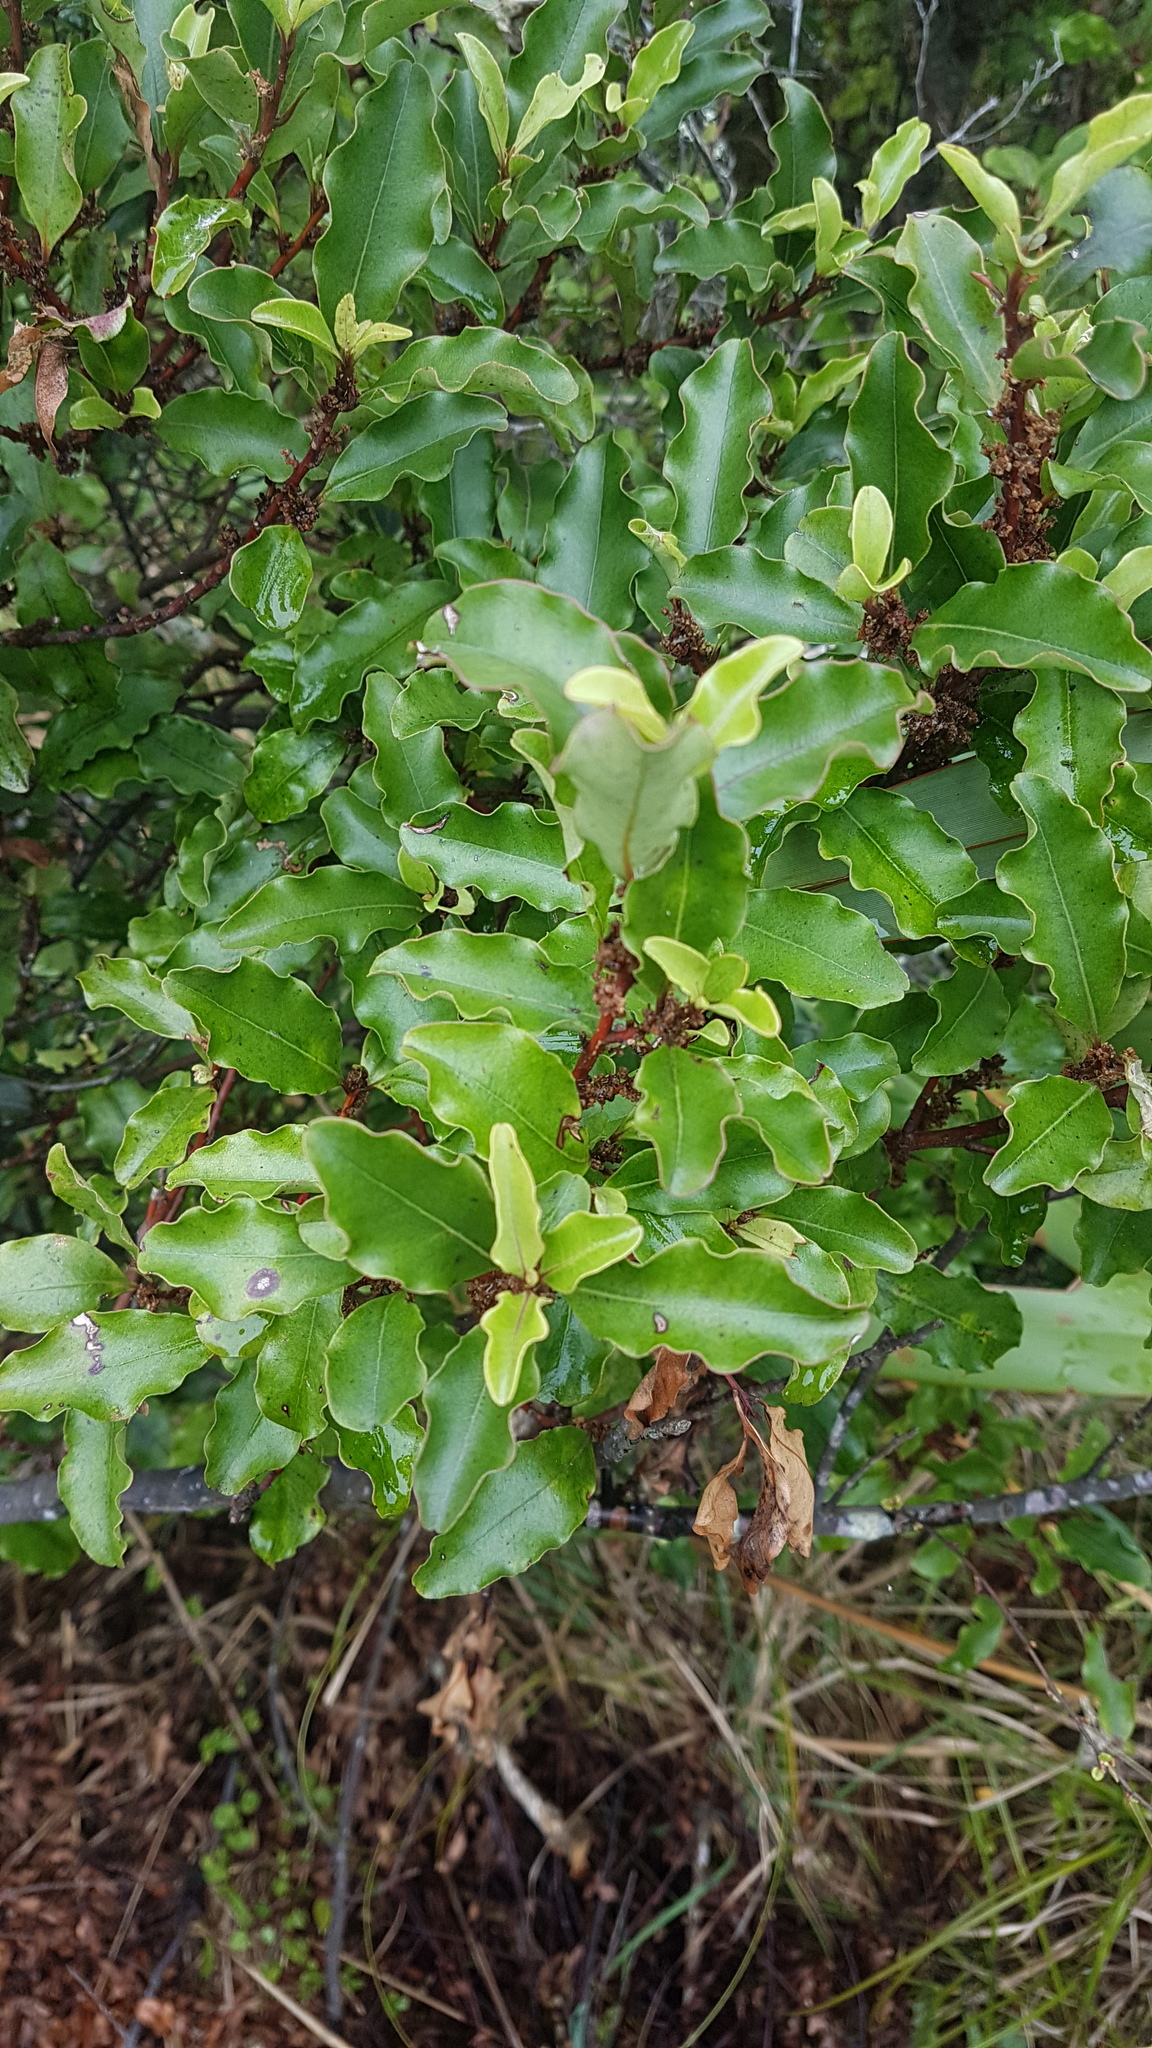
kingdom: Plantae
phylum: Tracheophyta
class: Magnoliopsida
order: Ericales
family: Primulaceae
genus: Myrsine
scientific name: Myrsine australis
